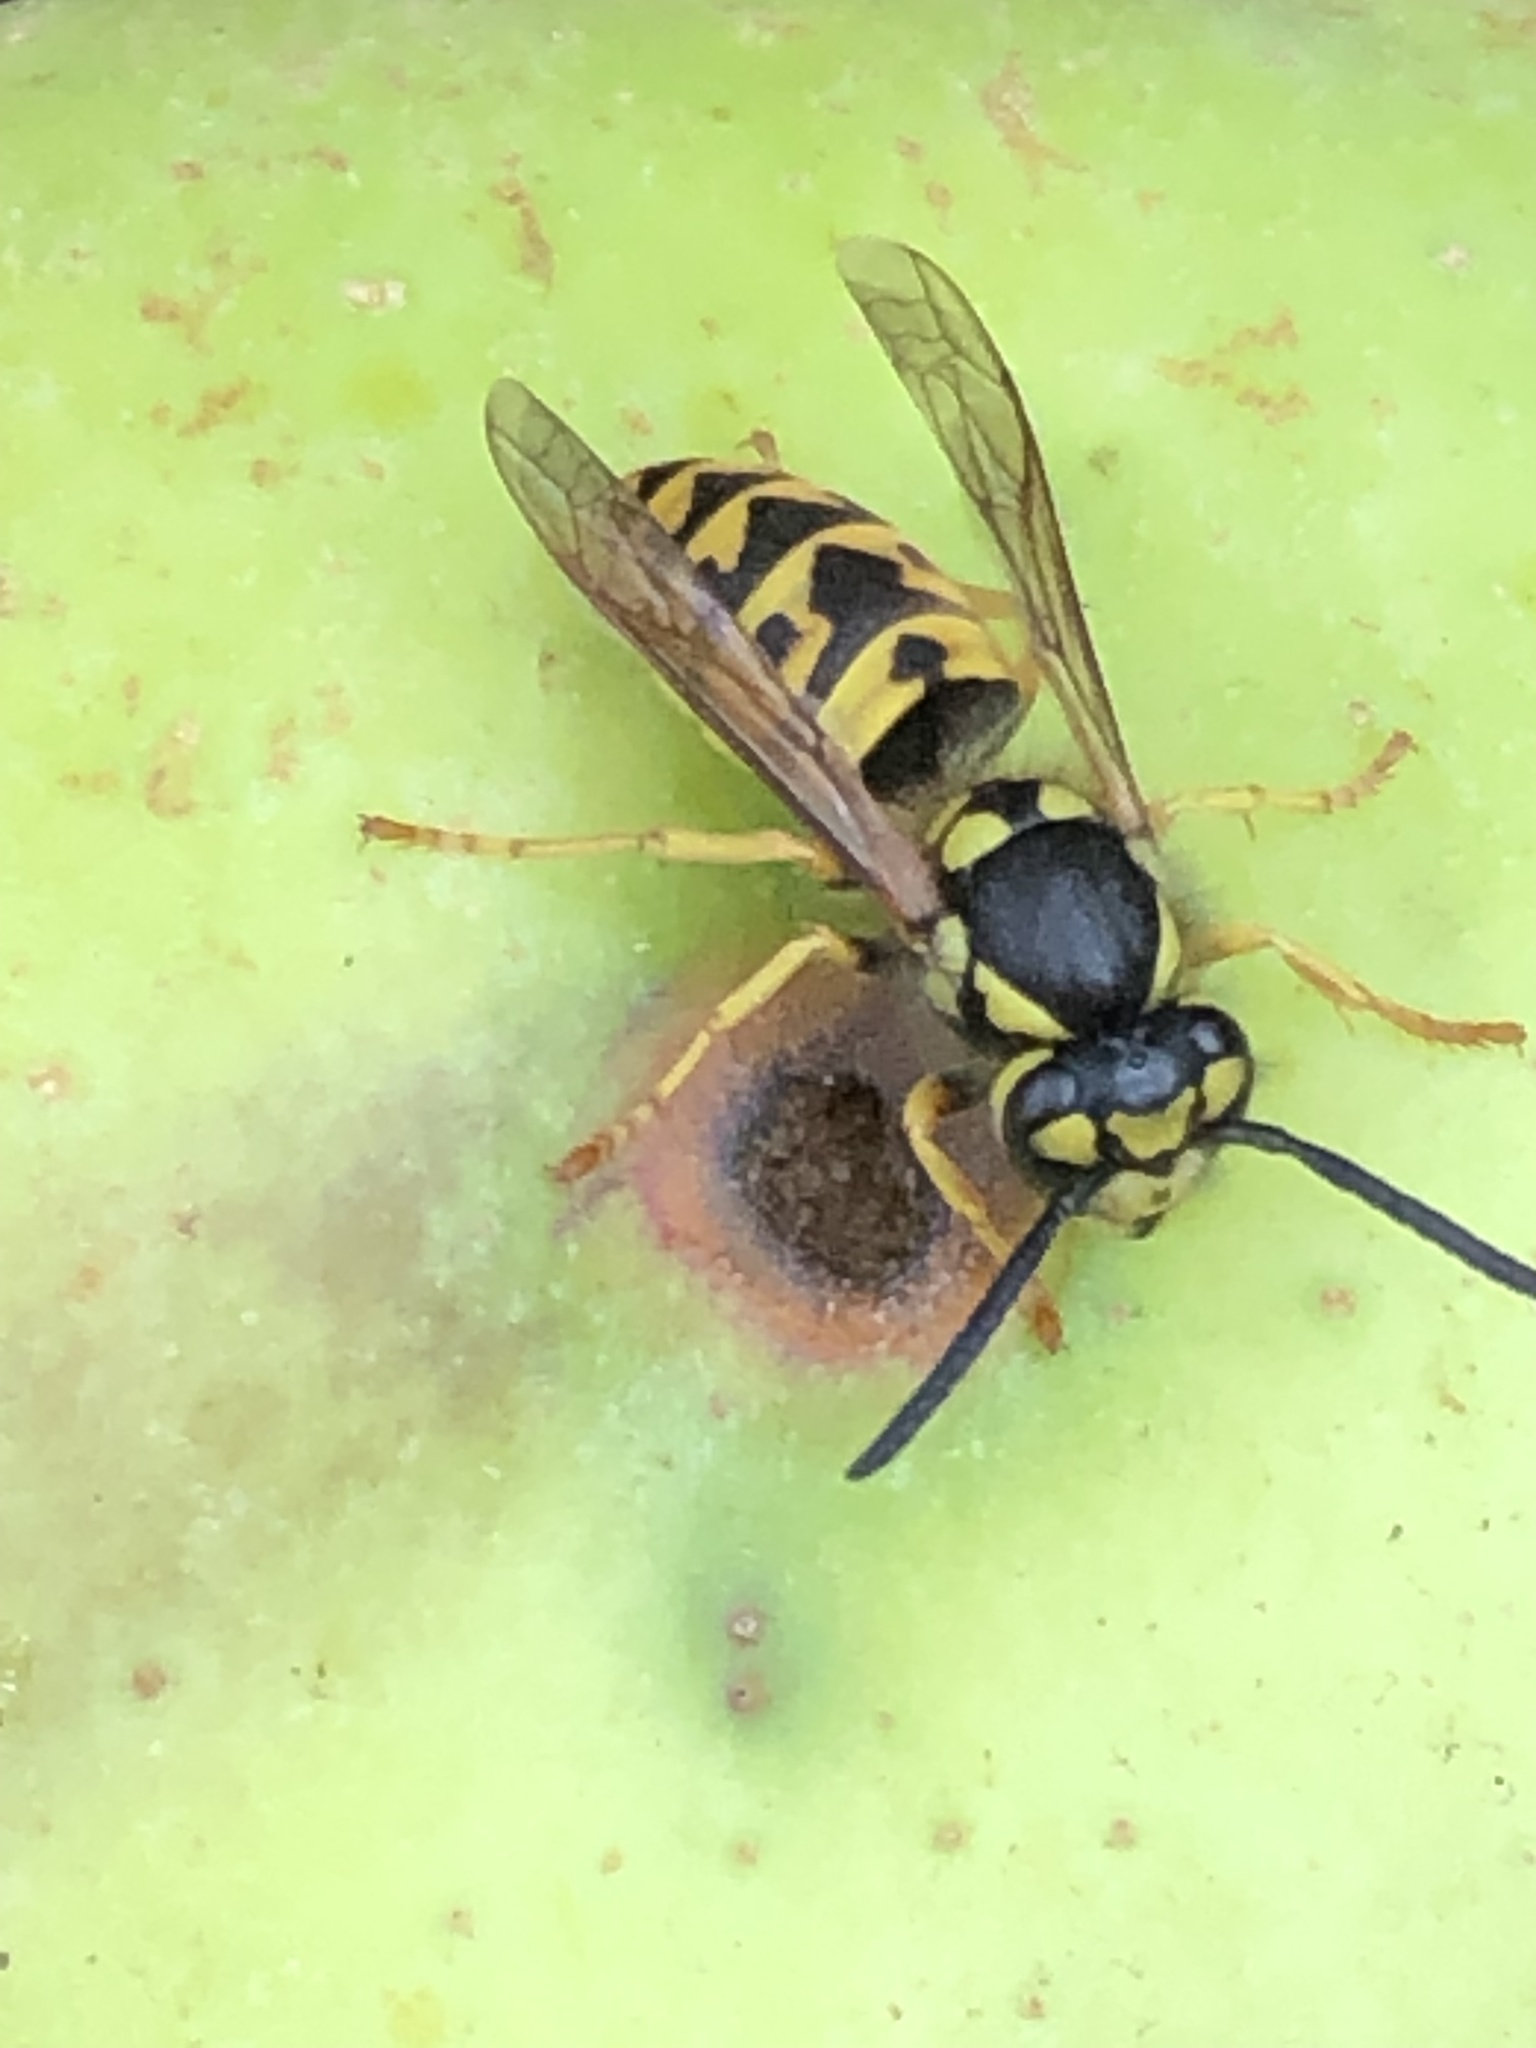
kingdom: Animalia
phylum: Arthropoda
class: Insecta
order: Hymenoptera
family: Vespidae
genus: Vespula
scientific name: Vespula germanica
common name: German wasp
